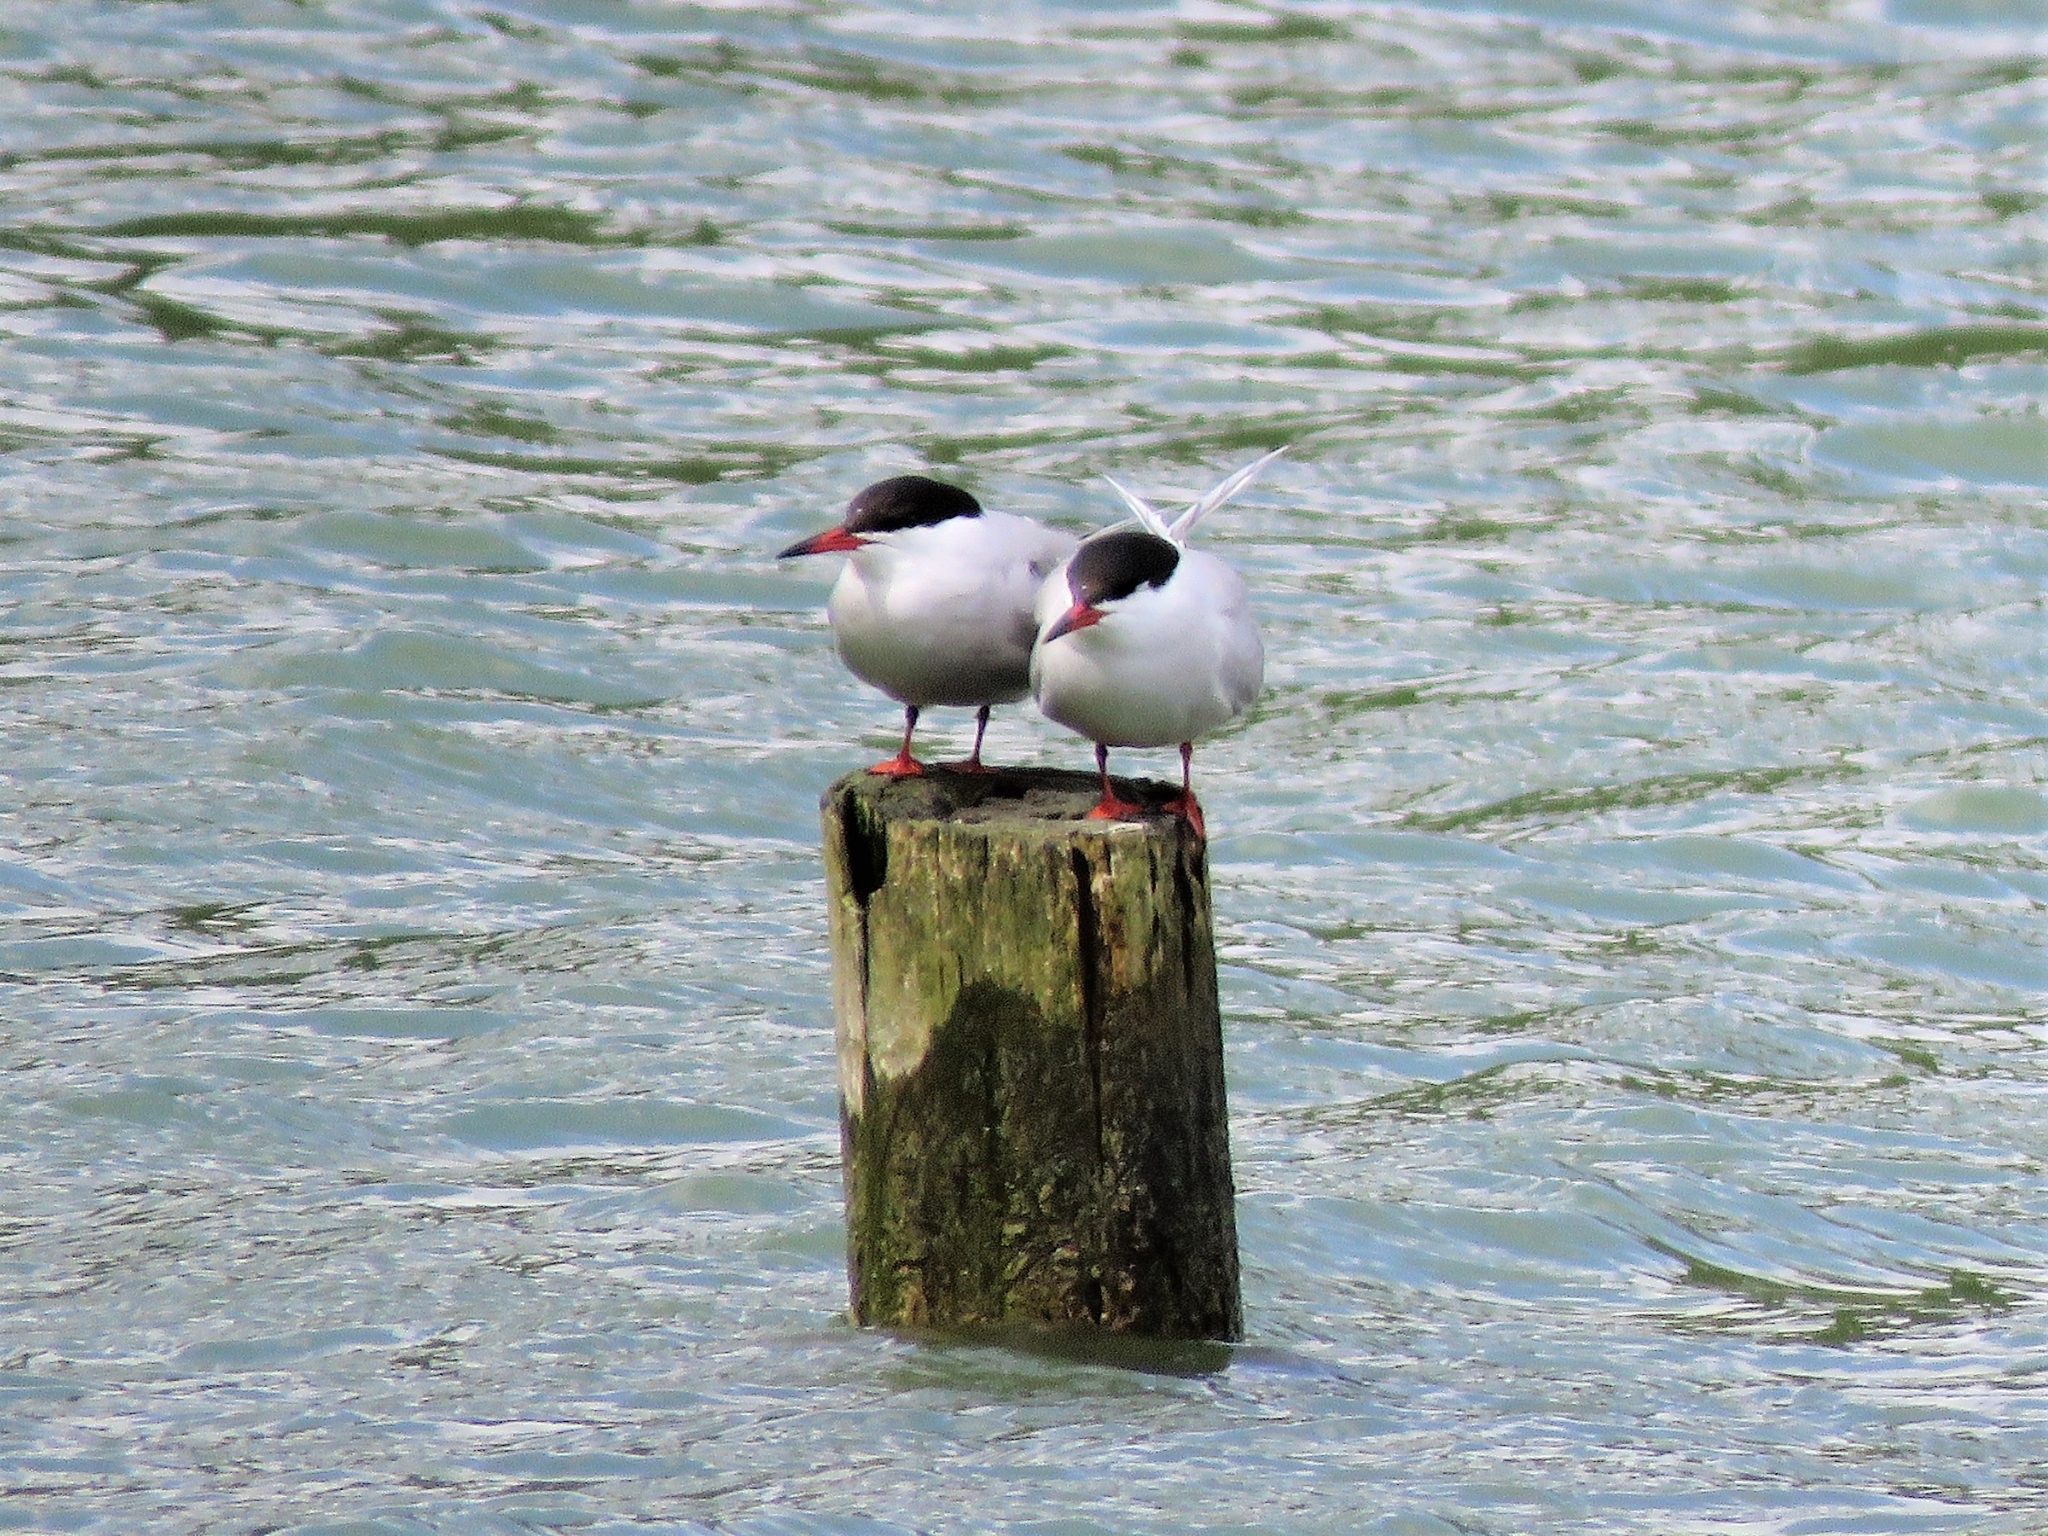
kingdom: Animalia
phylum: Chordata
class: Aves
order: Charadriiformes
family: Laridae
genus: Sterna
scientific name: Sterna hirundo
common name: Common tern
